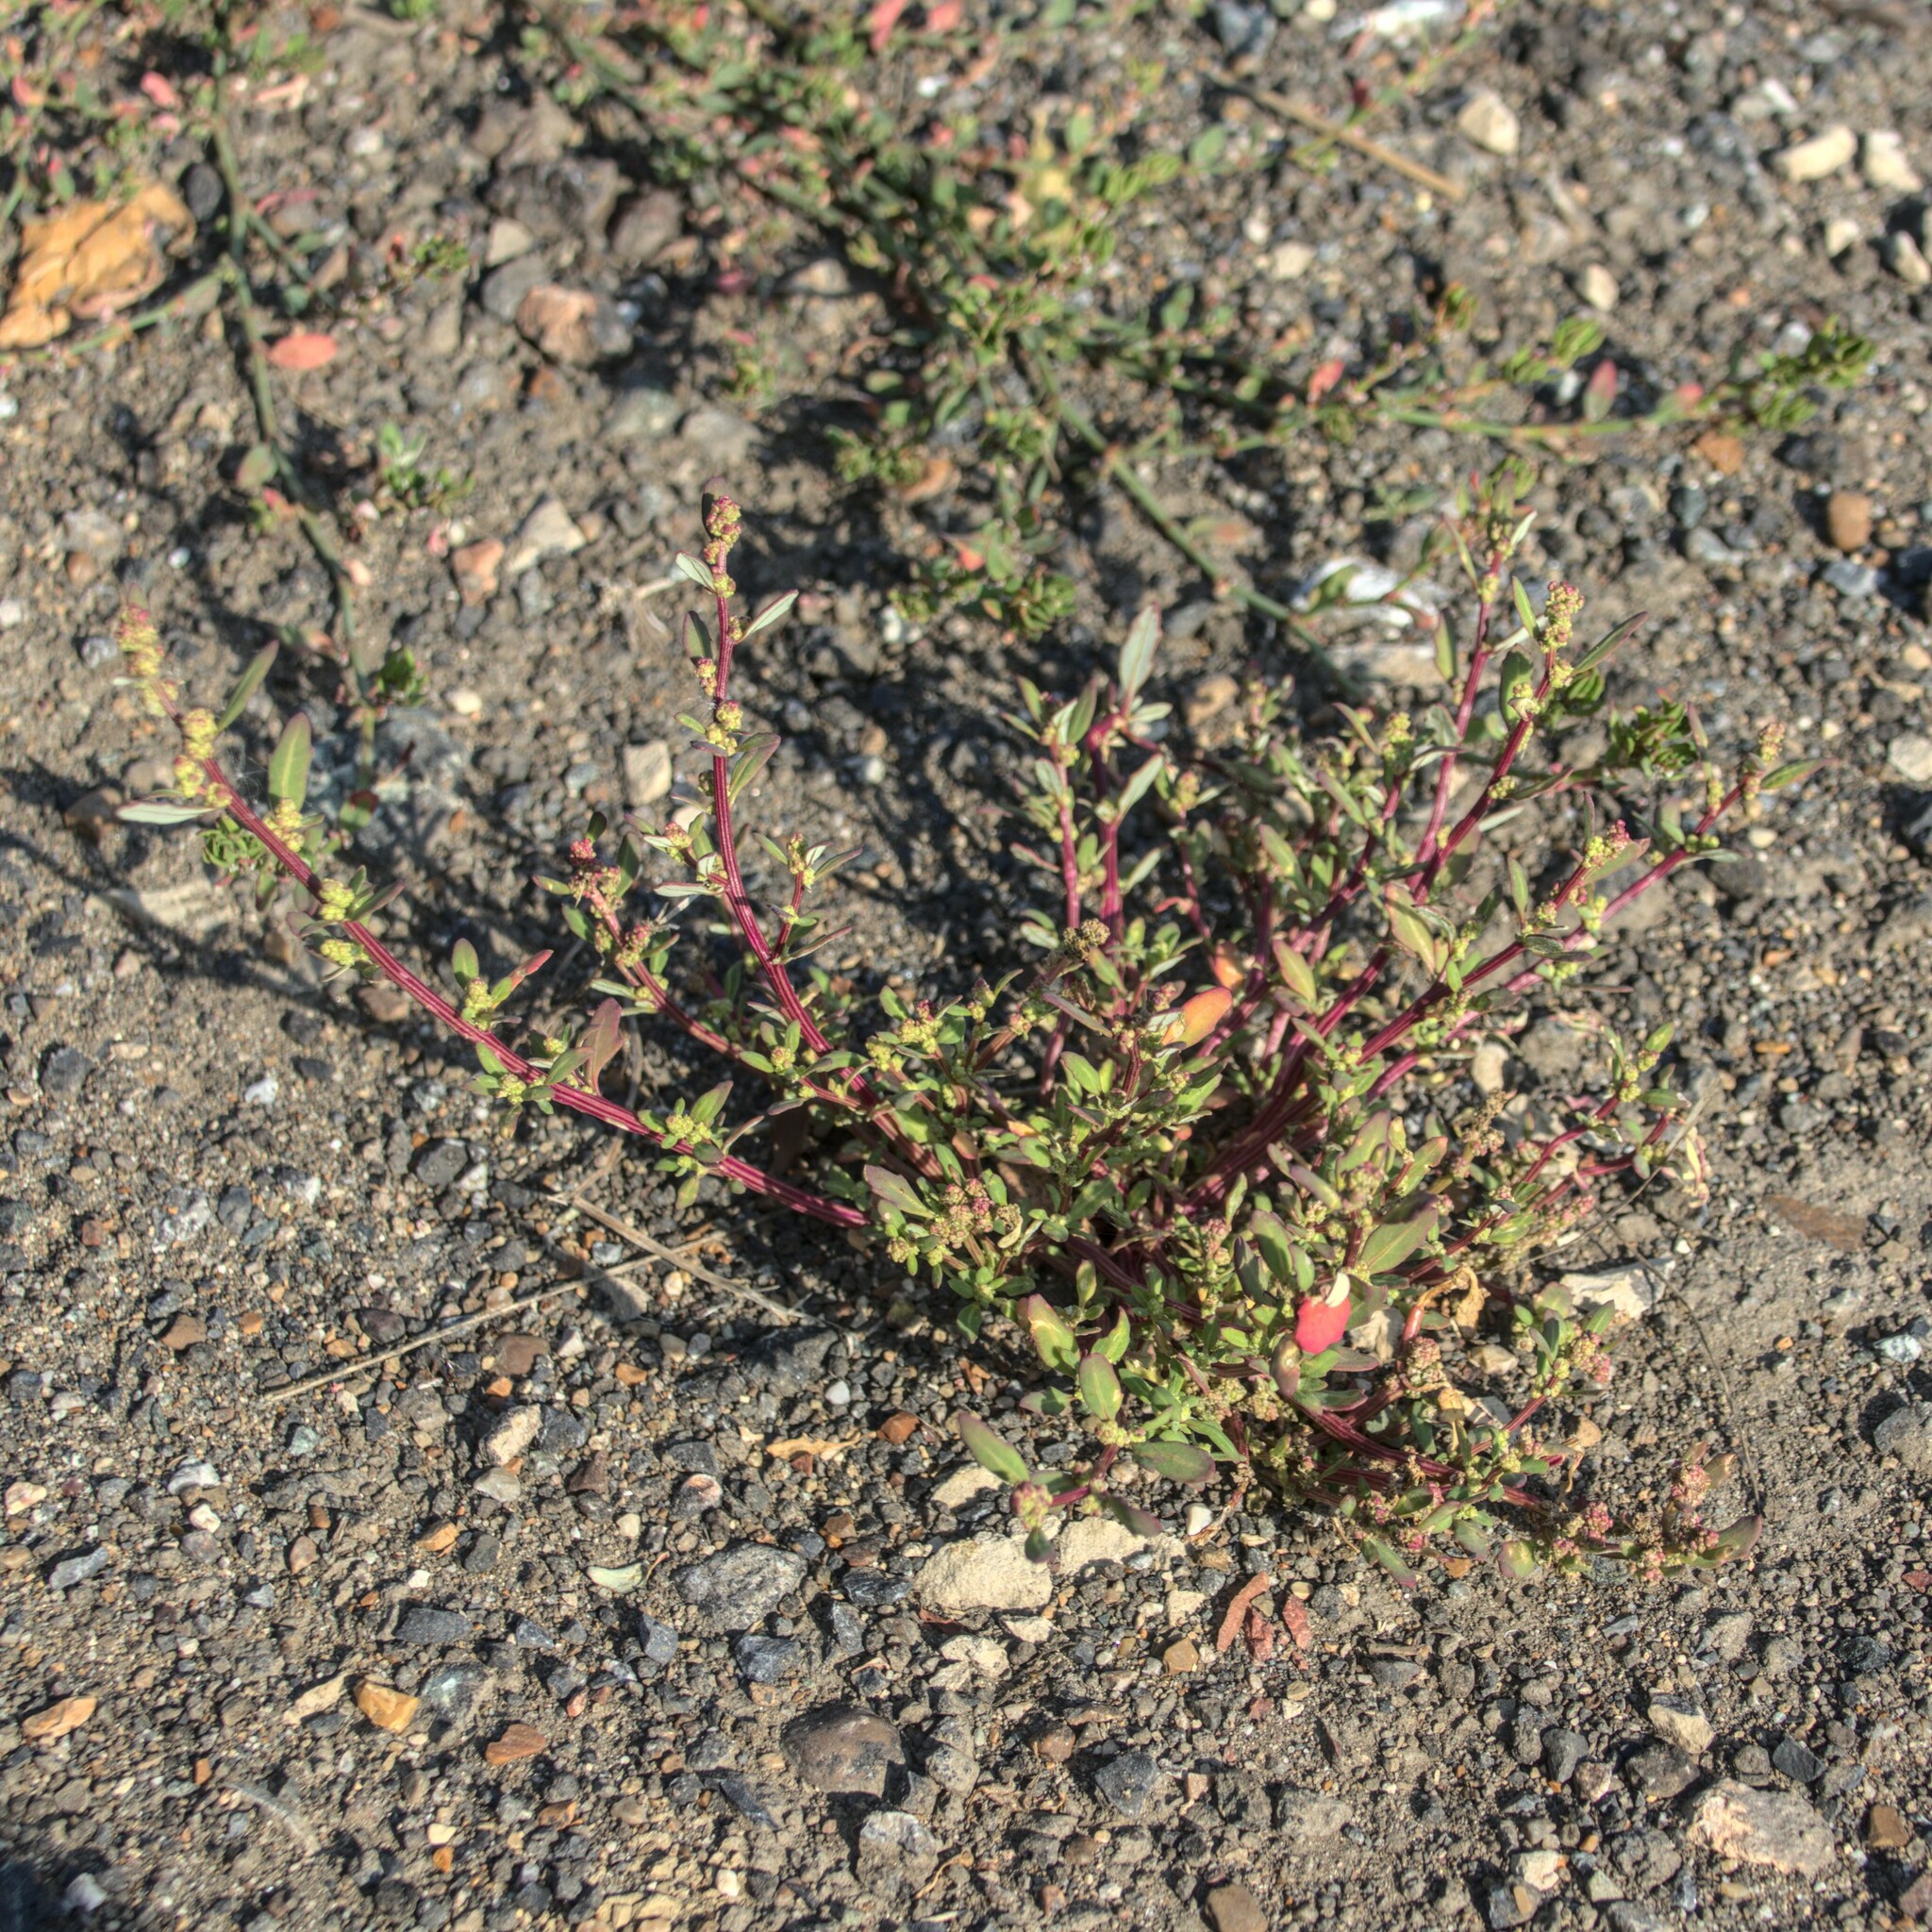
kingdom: Plantae
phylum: Tracheophyta
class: Magnoliopsida
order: Caryophyllales
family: Amaranthaceae
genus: Oxybasis
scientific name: Oxybasis glauca
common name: Glaucous goosefoot
